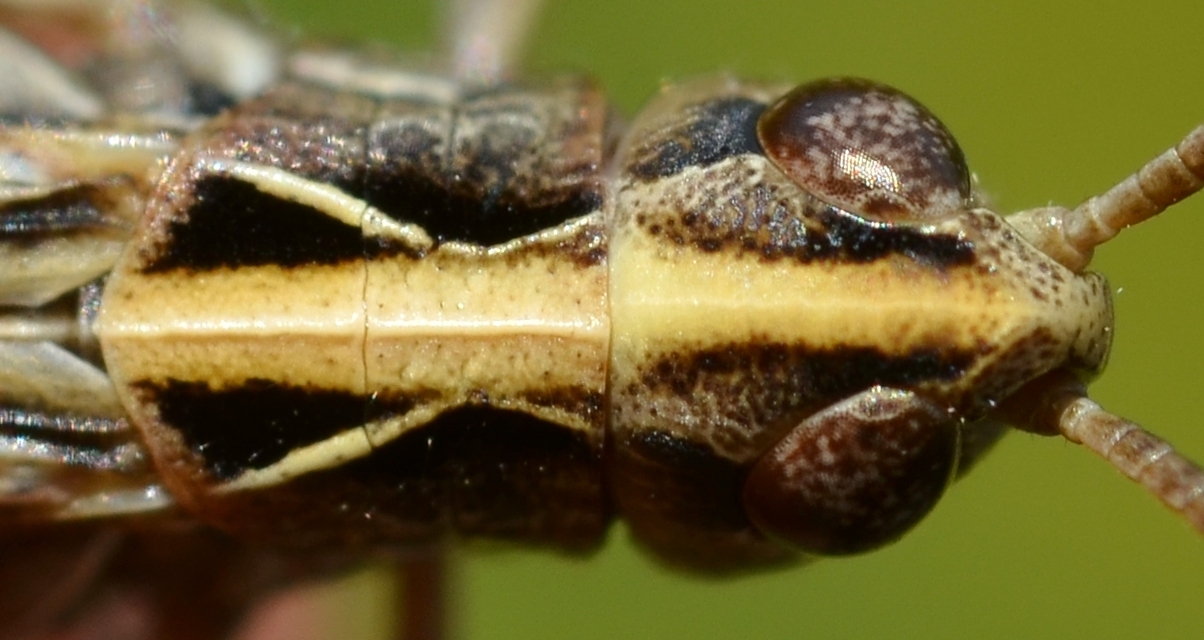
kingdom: Animalia
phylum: Arthropoda
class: Insecta
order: Orthoptera
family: Acrididae
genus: Omocestus
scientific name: Omocestus haemorrhoidalis
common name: Orange-tipped grasshopper
